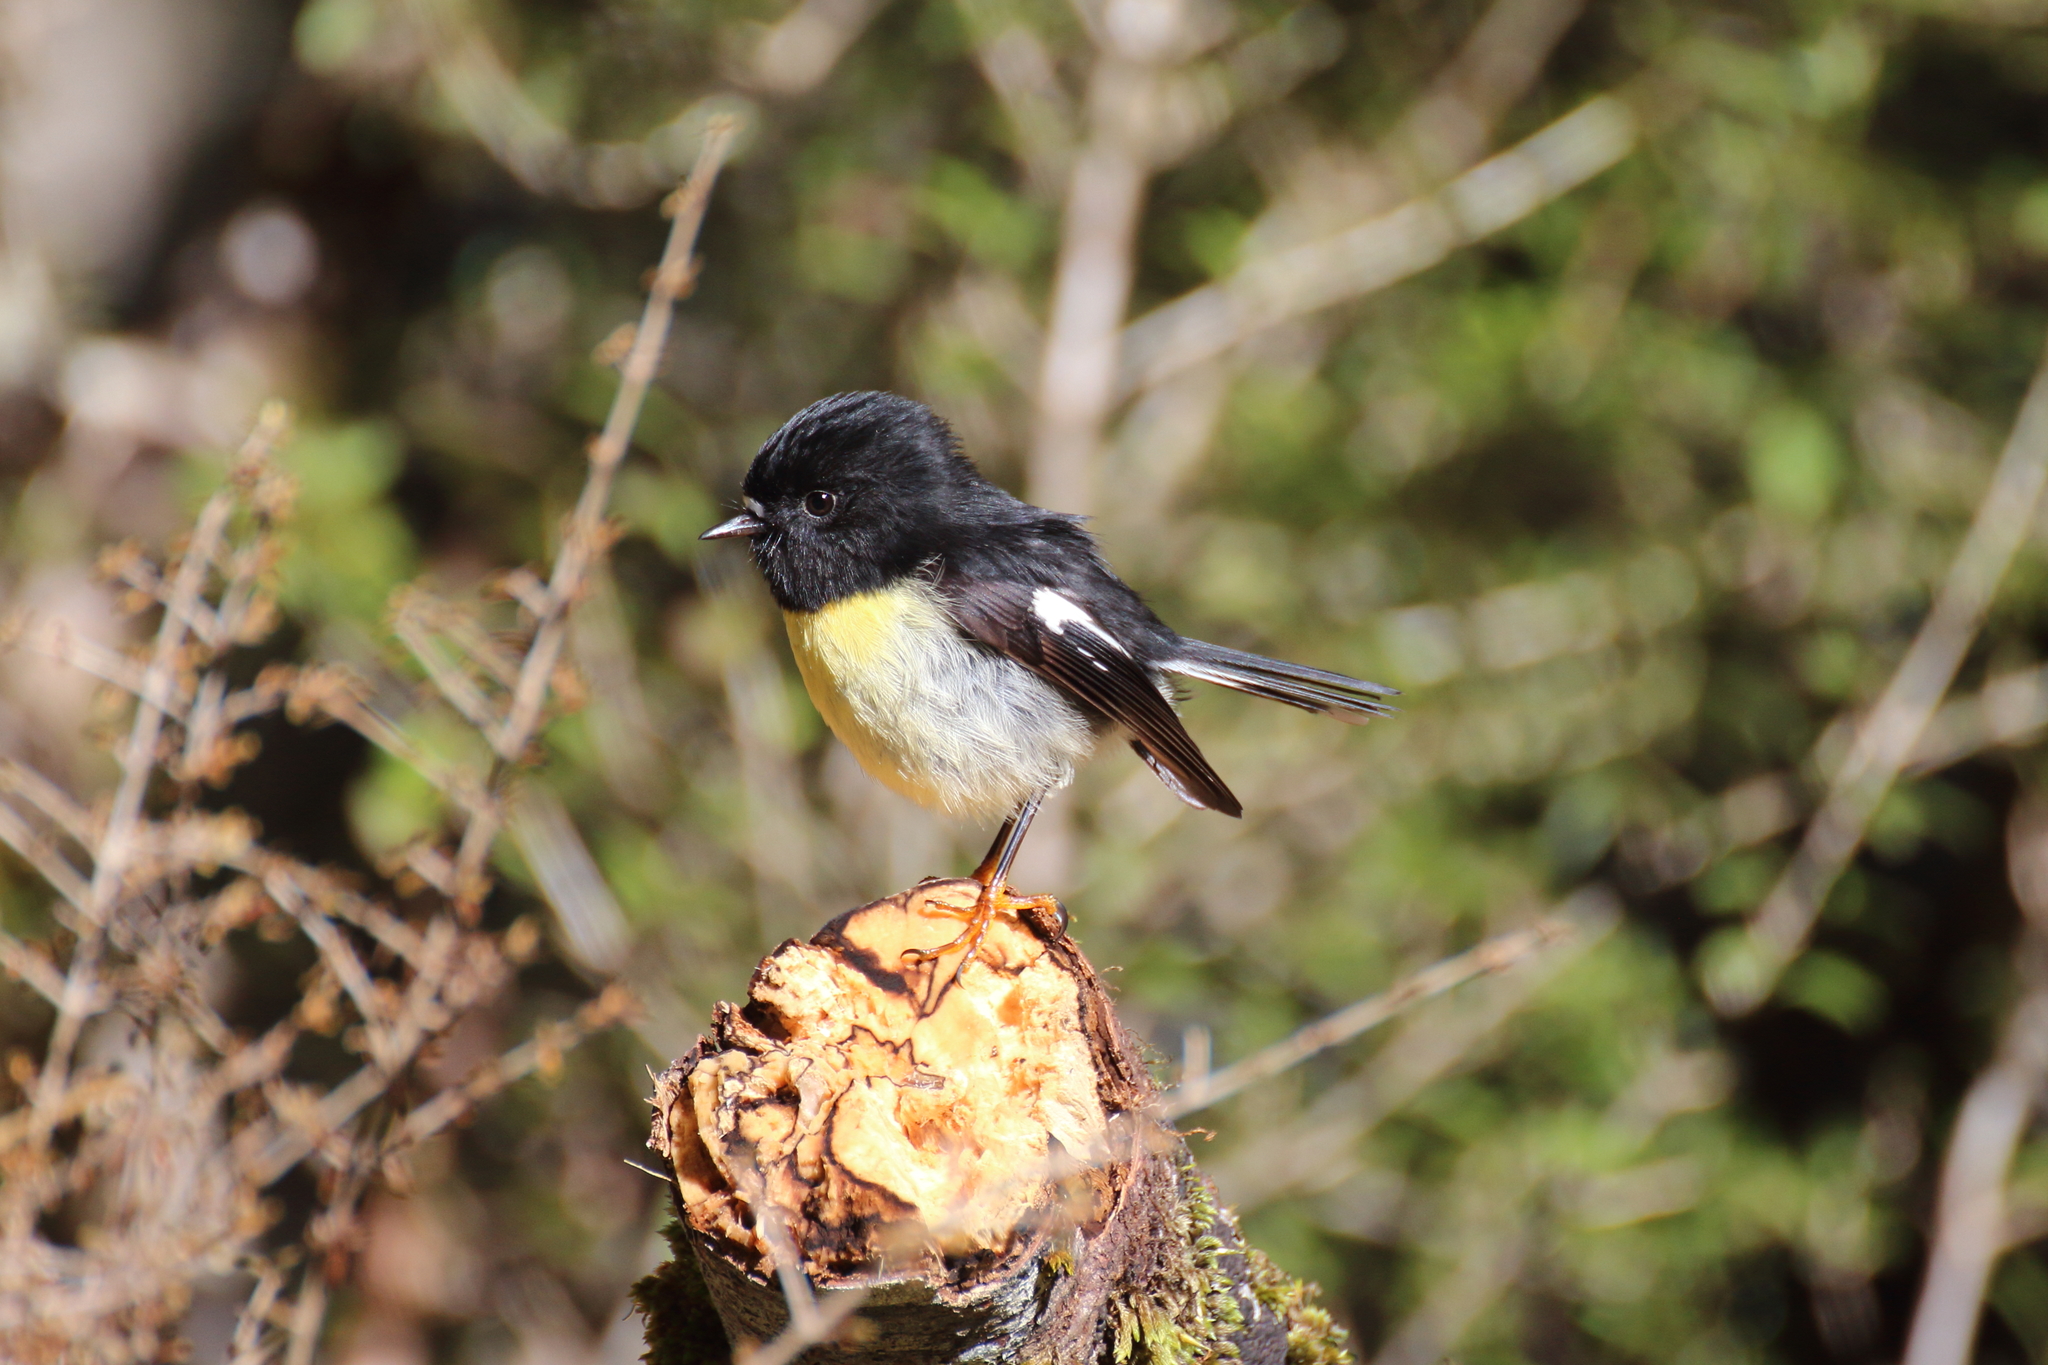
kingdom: Animalia
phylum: Chordata
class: Aves
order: Passeriformes
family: Petroicidae
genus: Petroica
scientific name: Petroica macrocephala
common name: Tomtit
